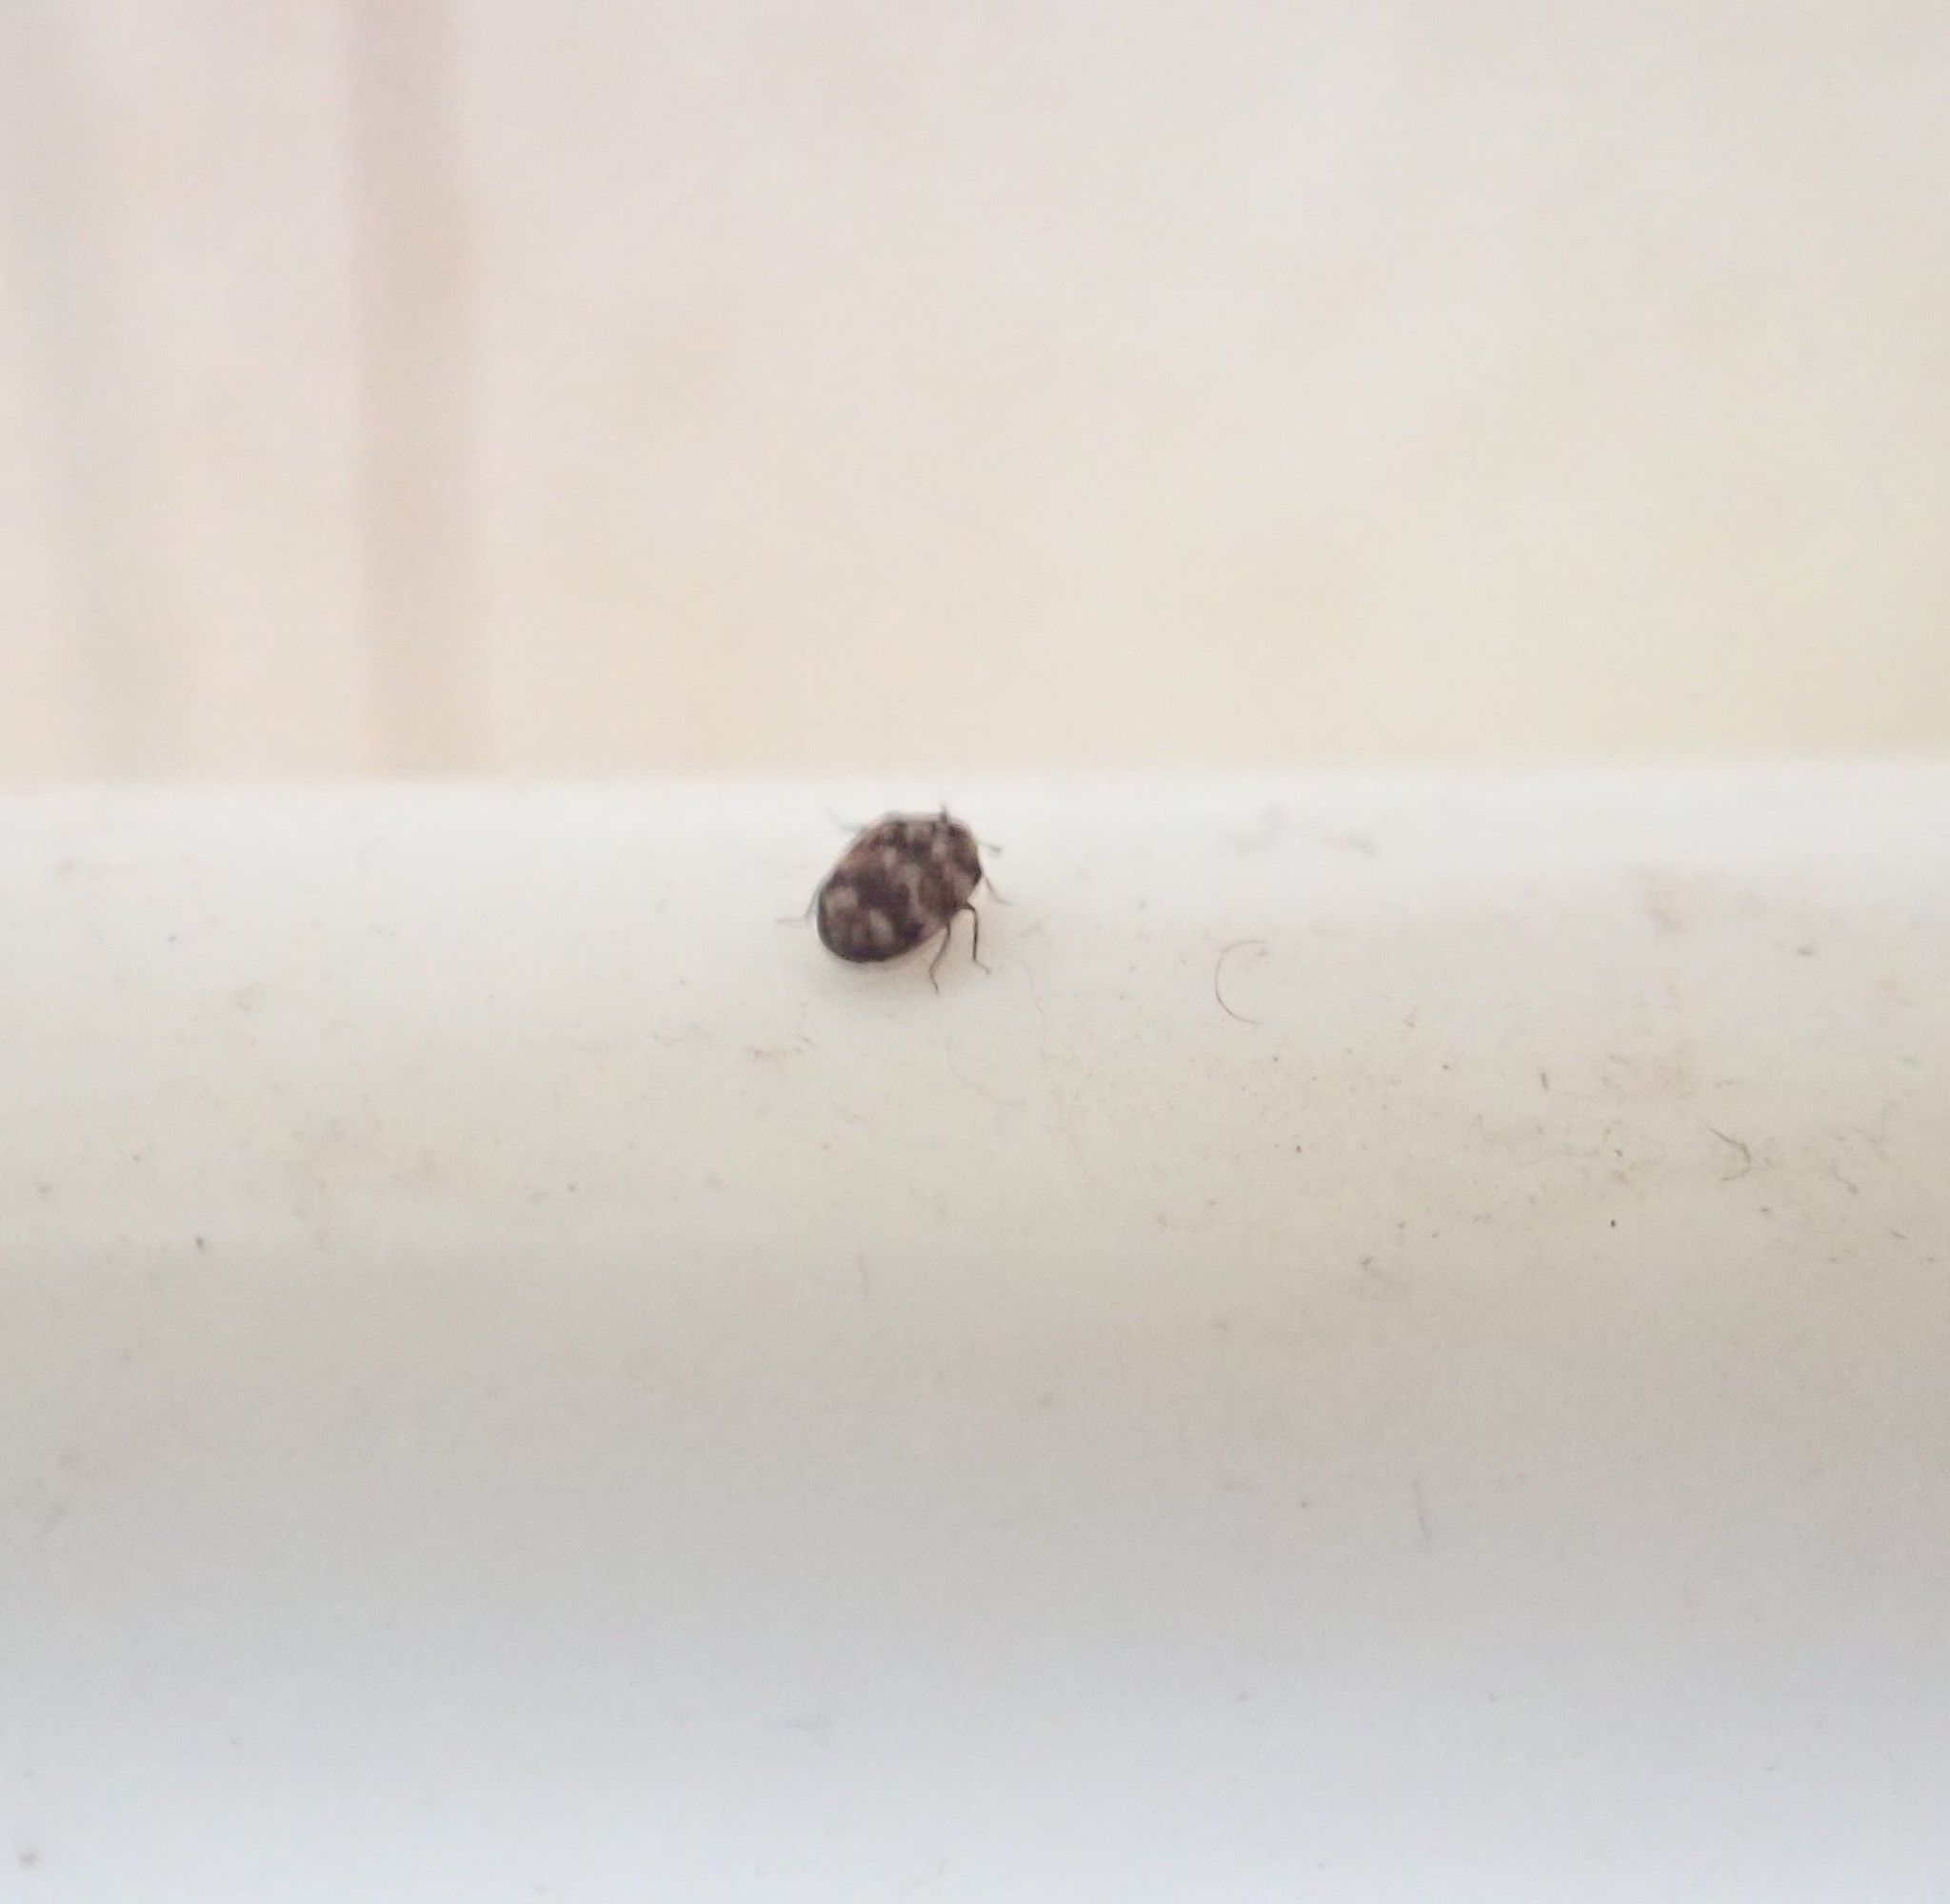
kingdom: Animalia
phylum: Arthropoda
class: Insecta
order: Coleoptera
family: Dermestidae
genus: Anthrenus
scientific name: Anthrenus verbasci
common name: Varied carpet beetle
